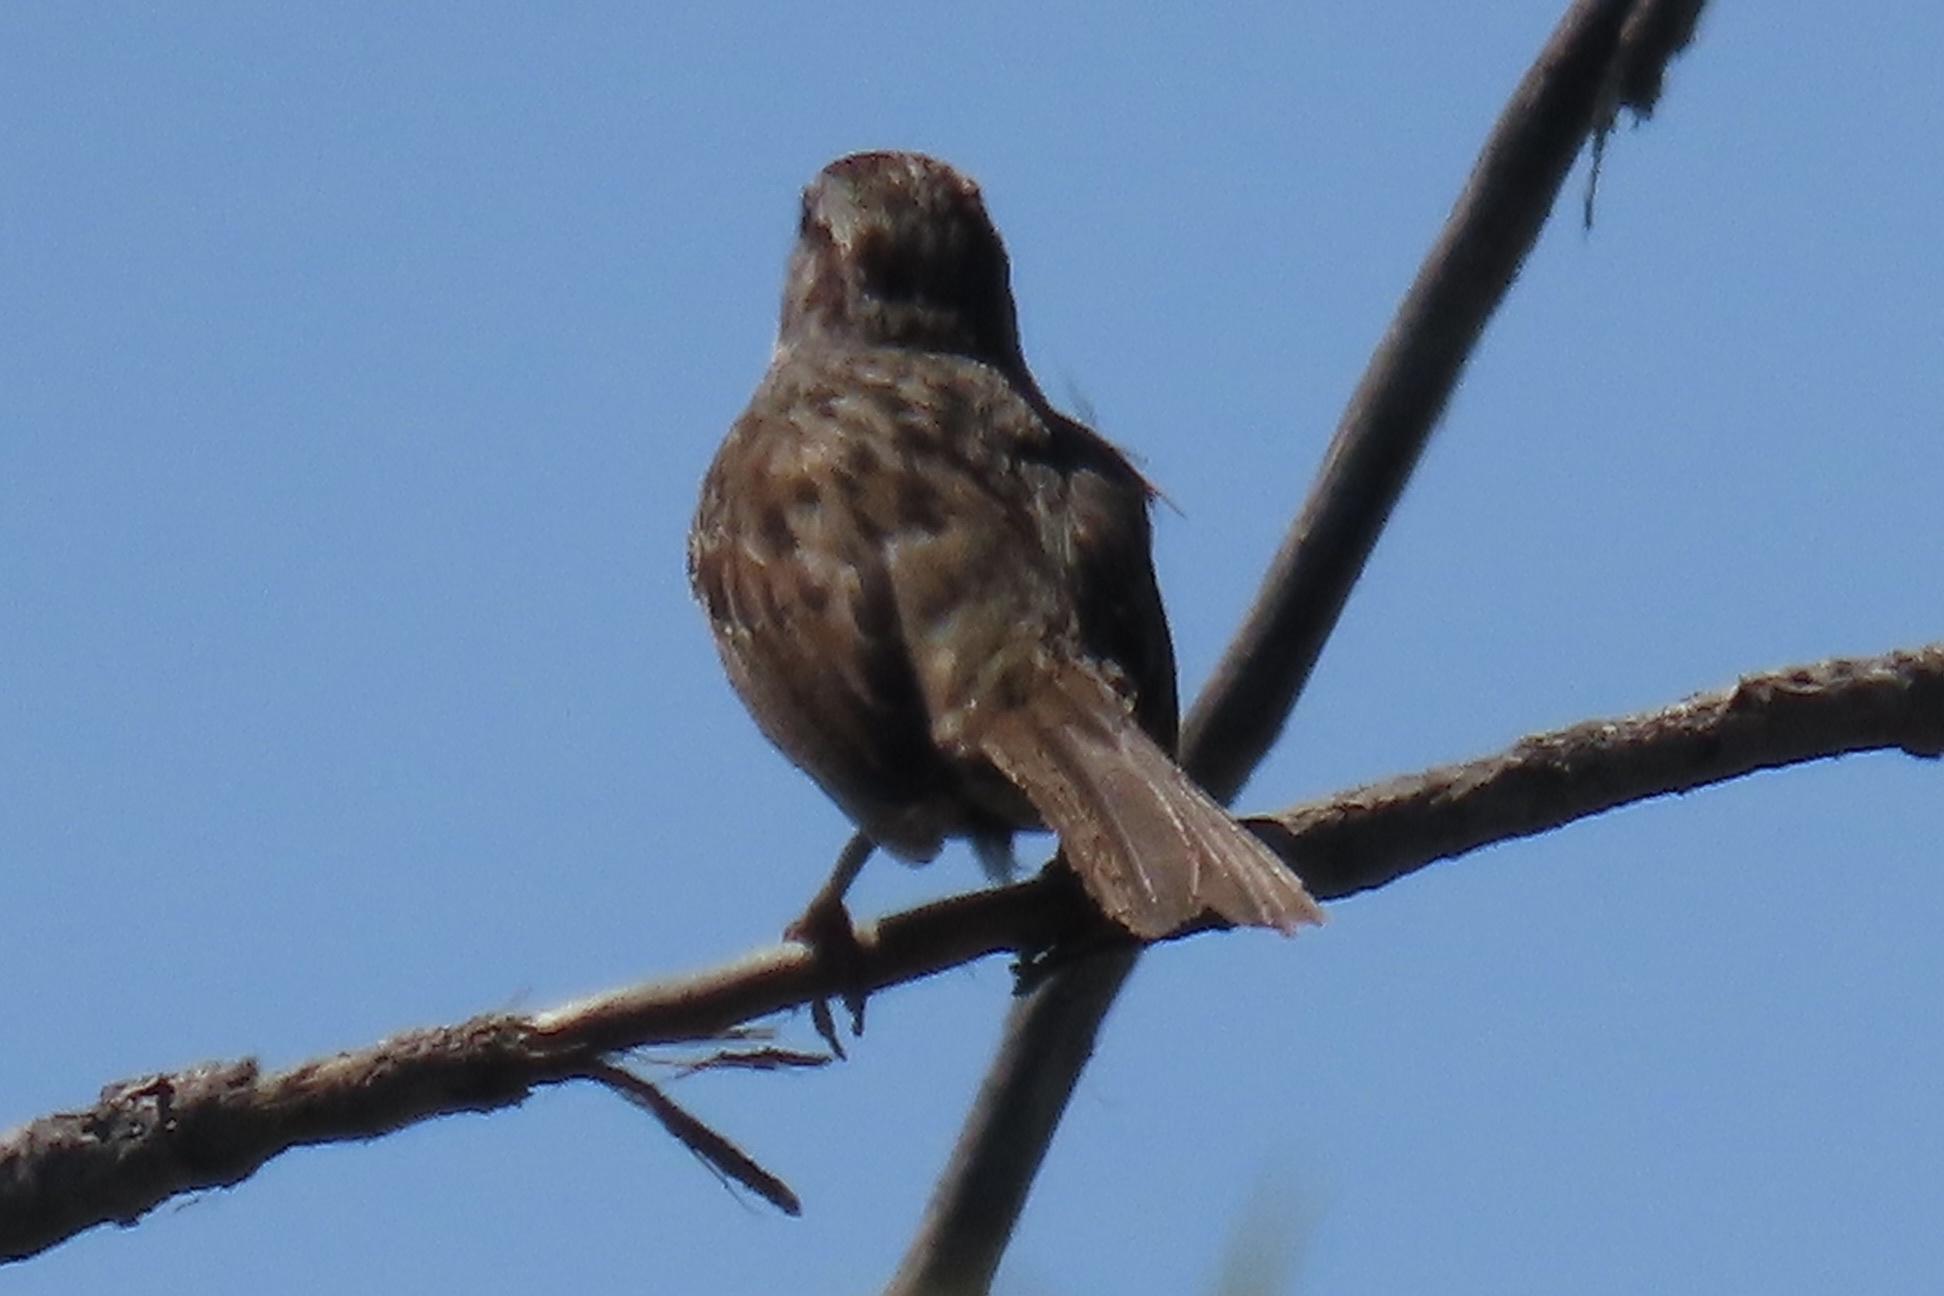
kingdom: Animalia
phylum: Chordata
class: Aves
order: Passeriformes
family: Passerellidae
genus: Melospiza
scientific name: Melospiza melodia
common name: Song sparrow
